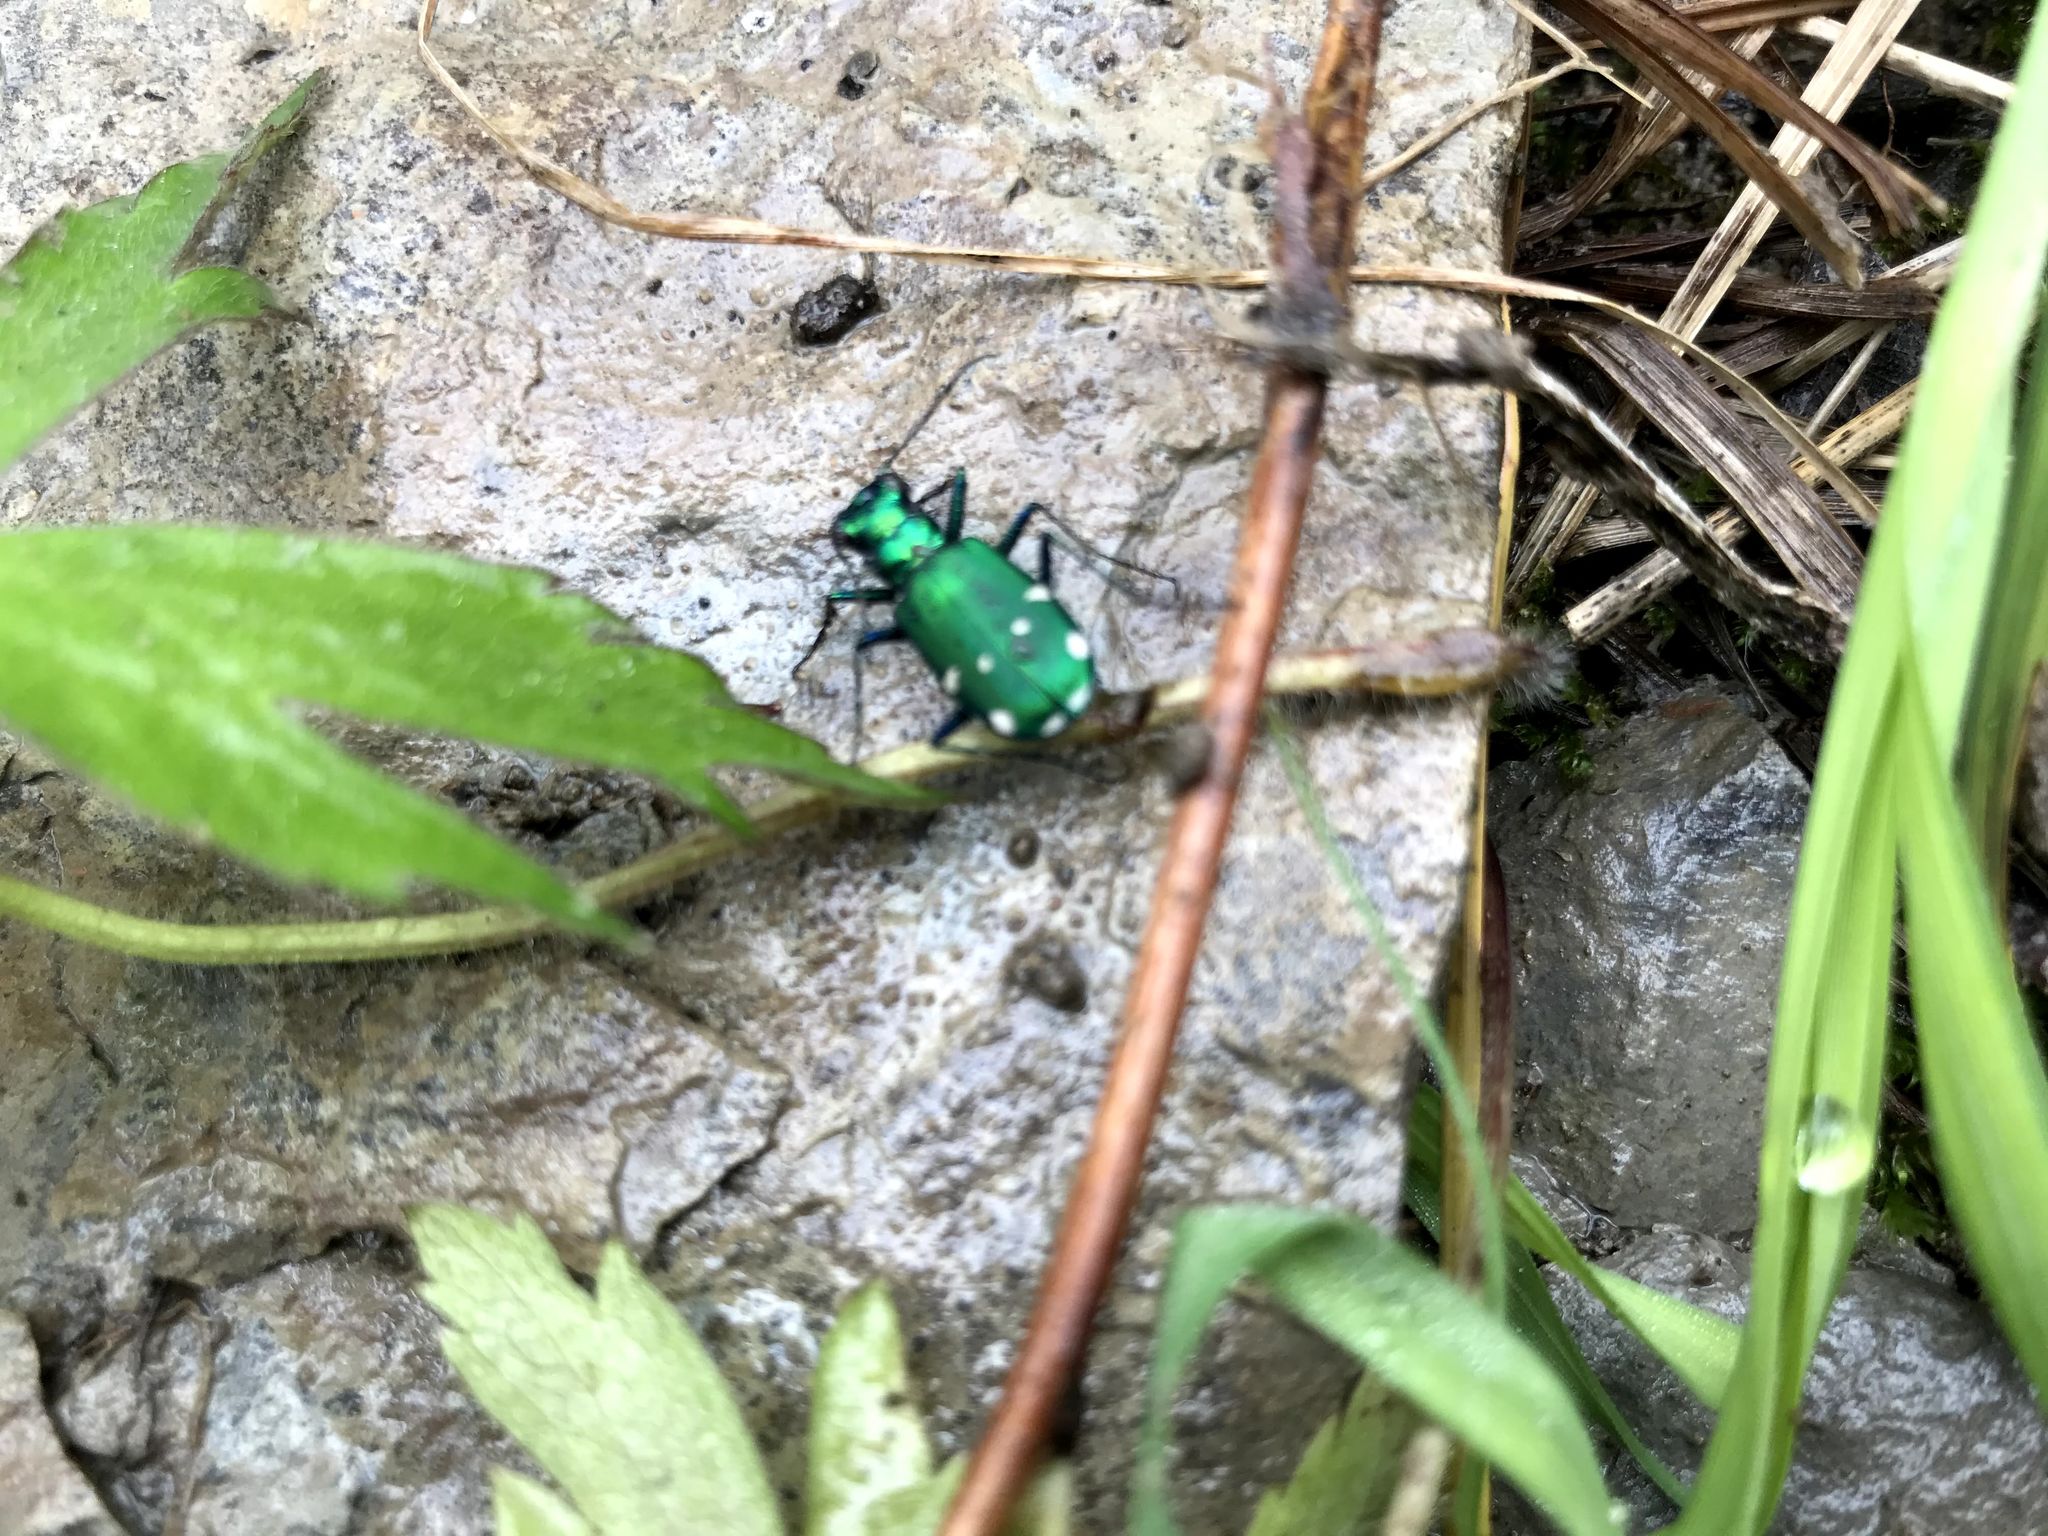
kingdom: Animalia
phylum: Arthropoda
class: Insecta
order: Coleoptera
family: Carabidae
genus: Cicindela
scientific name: Cicindela sexguttata
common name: Six-spotted tiger beetle
